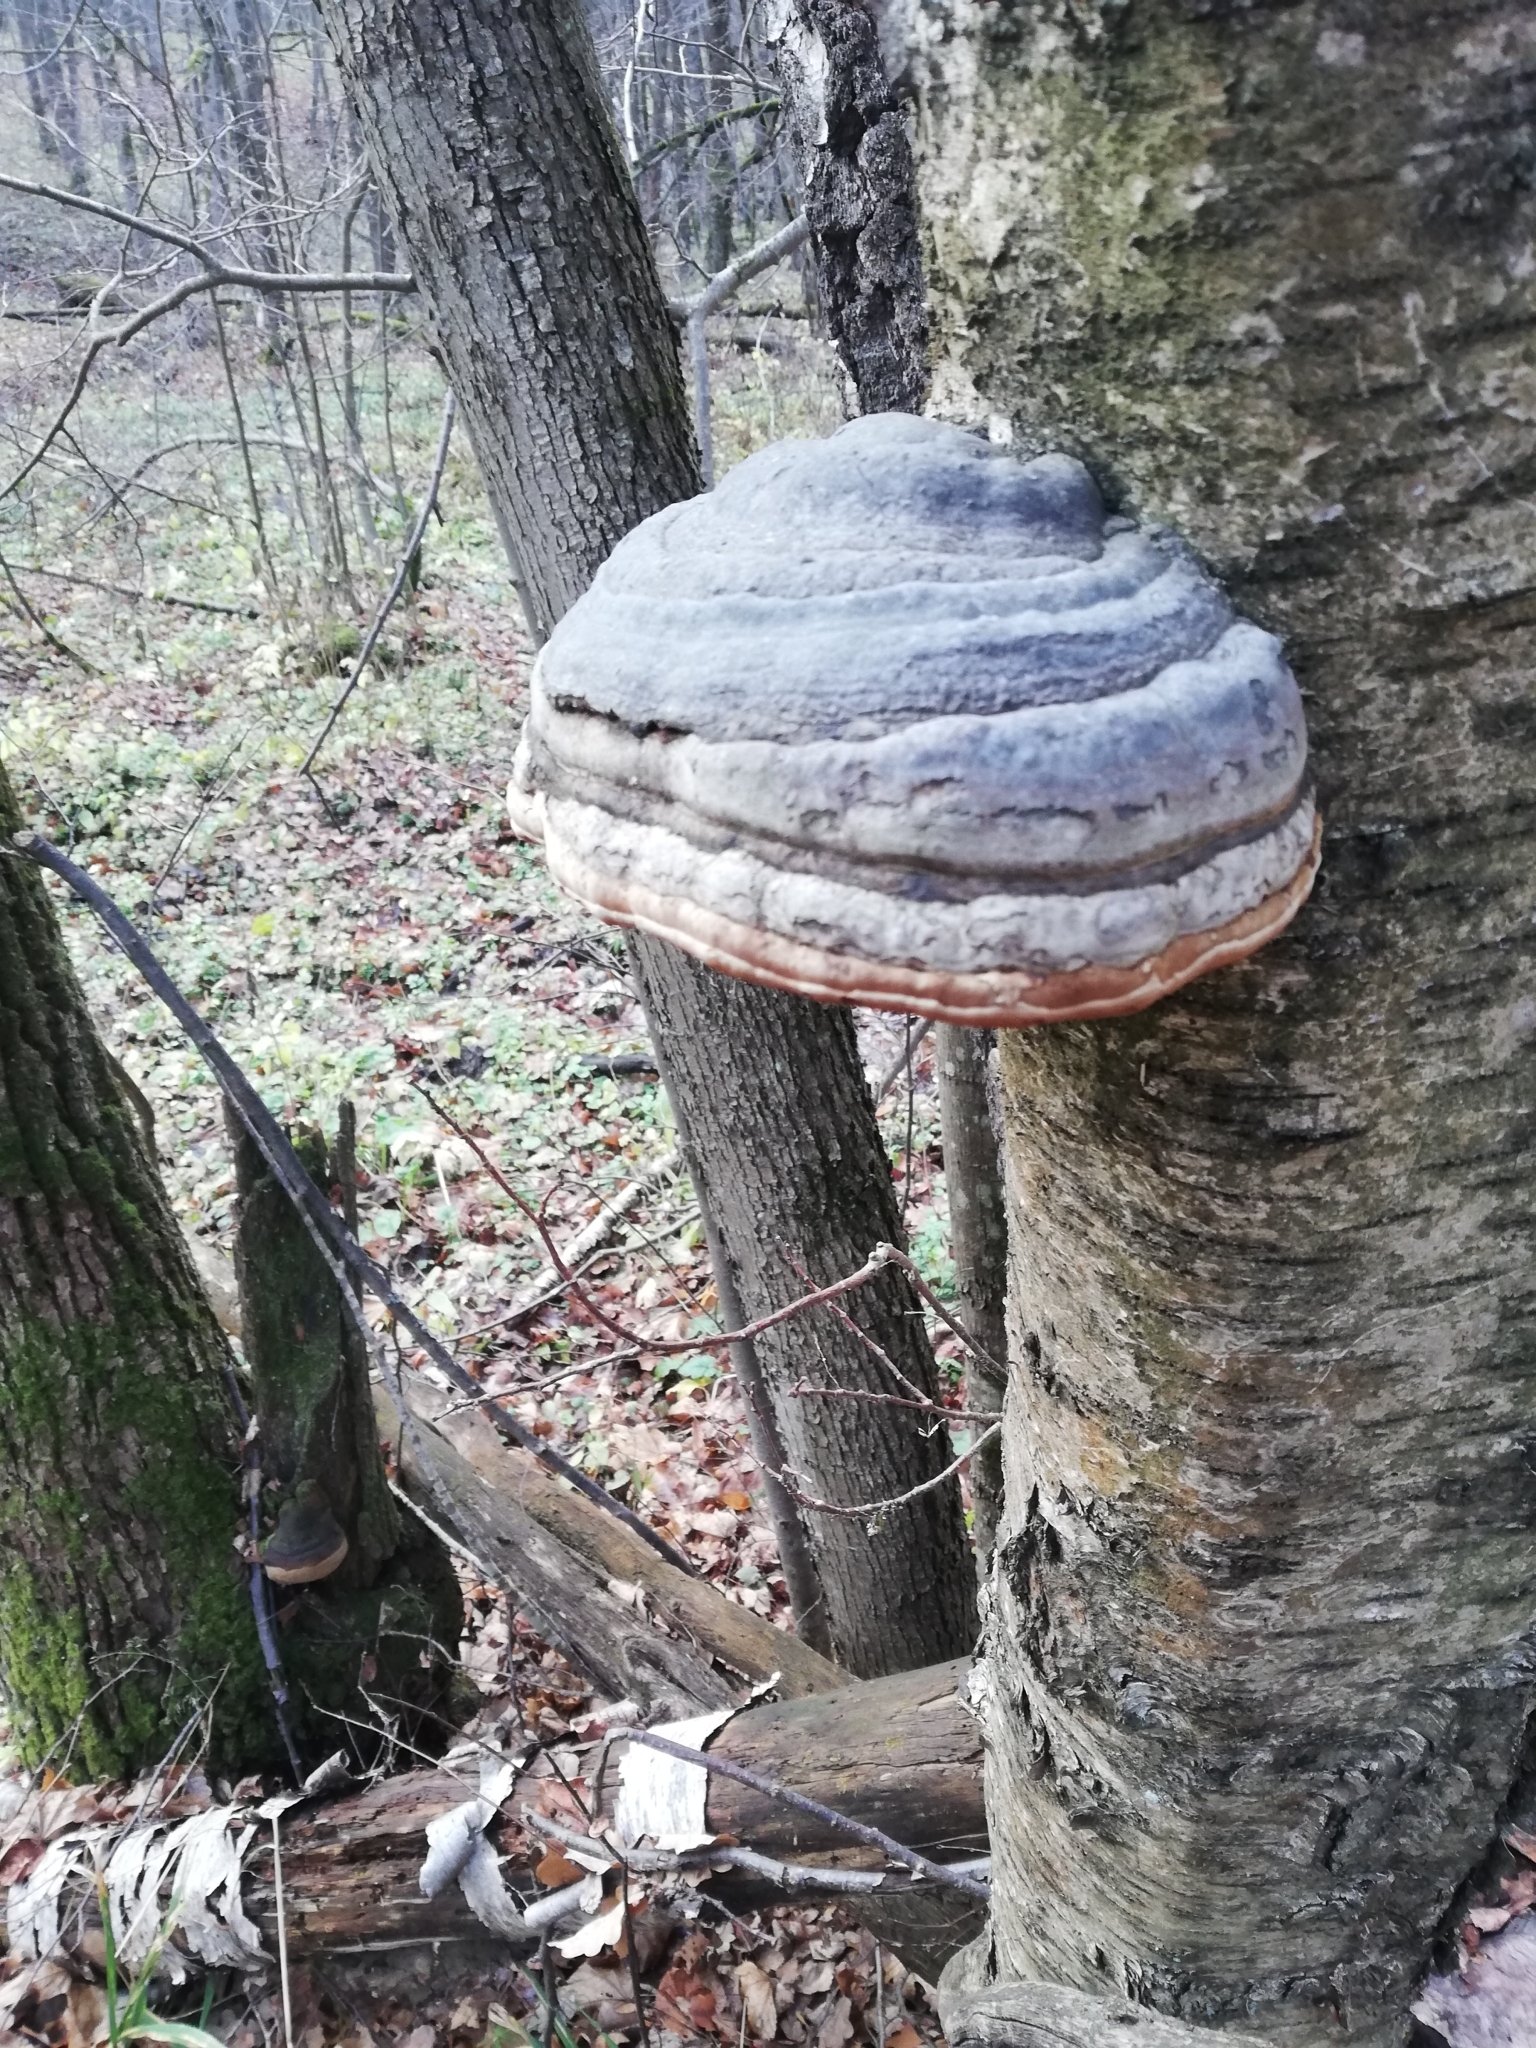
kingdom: Fungi
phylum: Basidiomycota
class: Agaricomycetes
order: Polyporales
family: Polyporaceae
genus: Fomes
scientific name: Fomes fomentarius
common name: Hoof fungus
